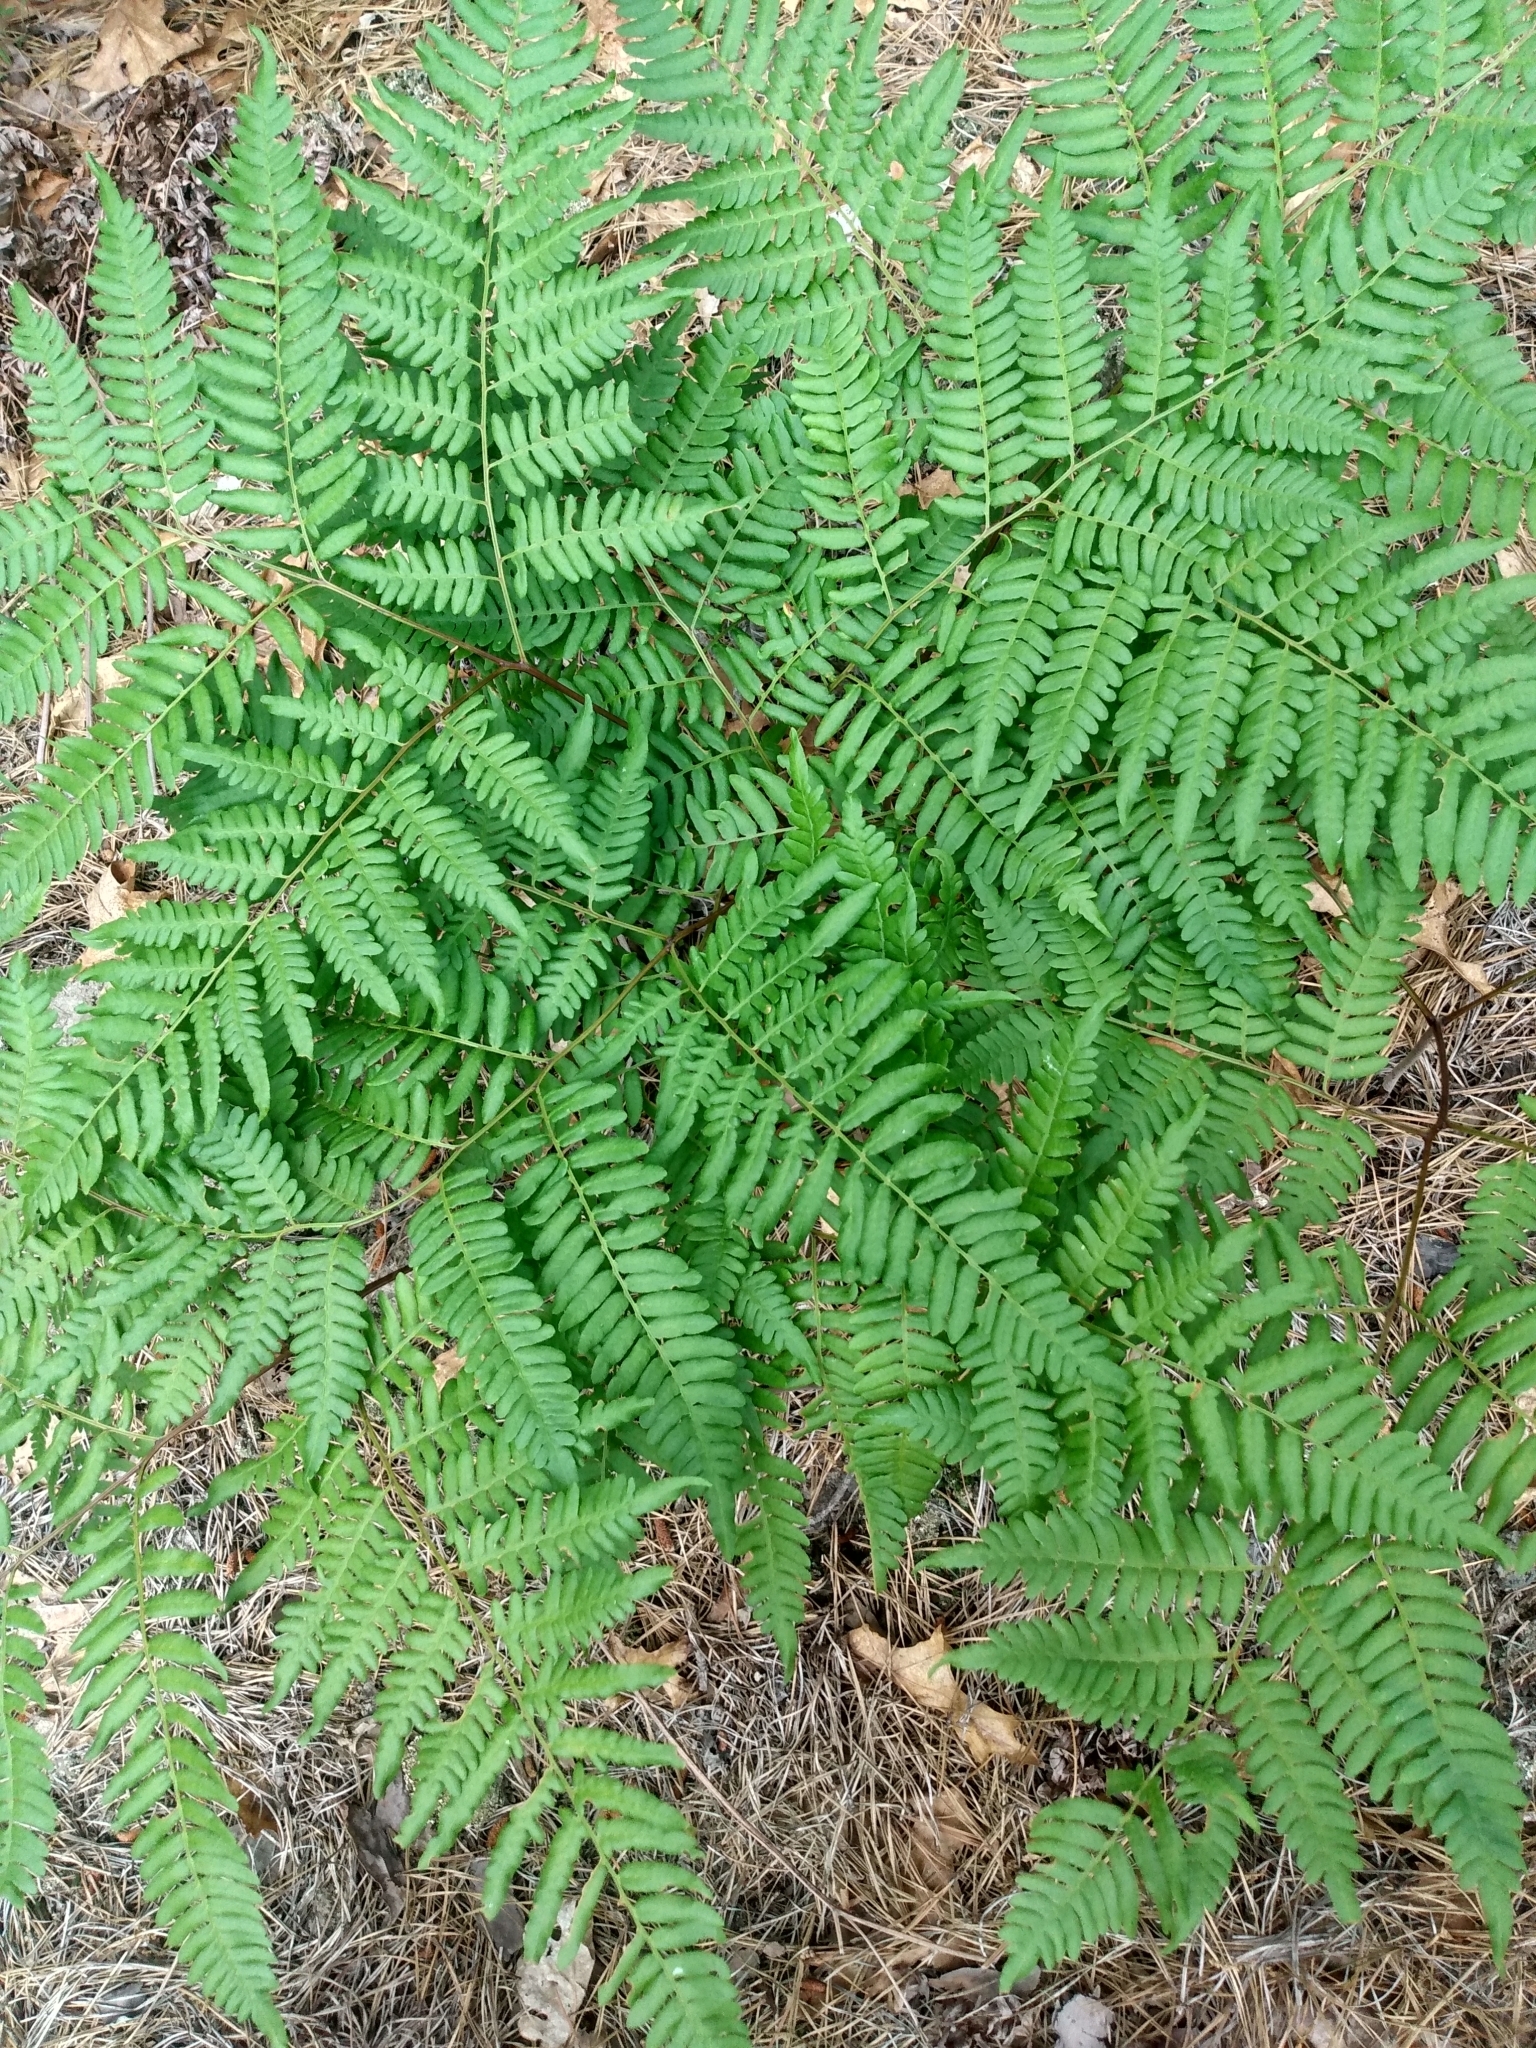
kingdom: Plantae
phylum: Tracheophyta
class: Polypodiopsida
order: Polypodiales
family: Dennstaedtiaceae
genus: Pteridium
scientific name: Pteridium aquilinum
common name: Bracken
